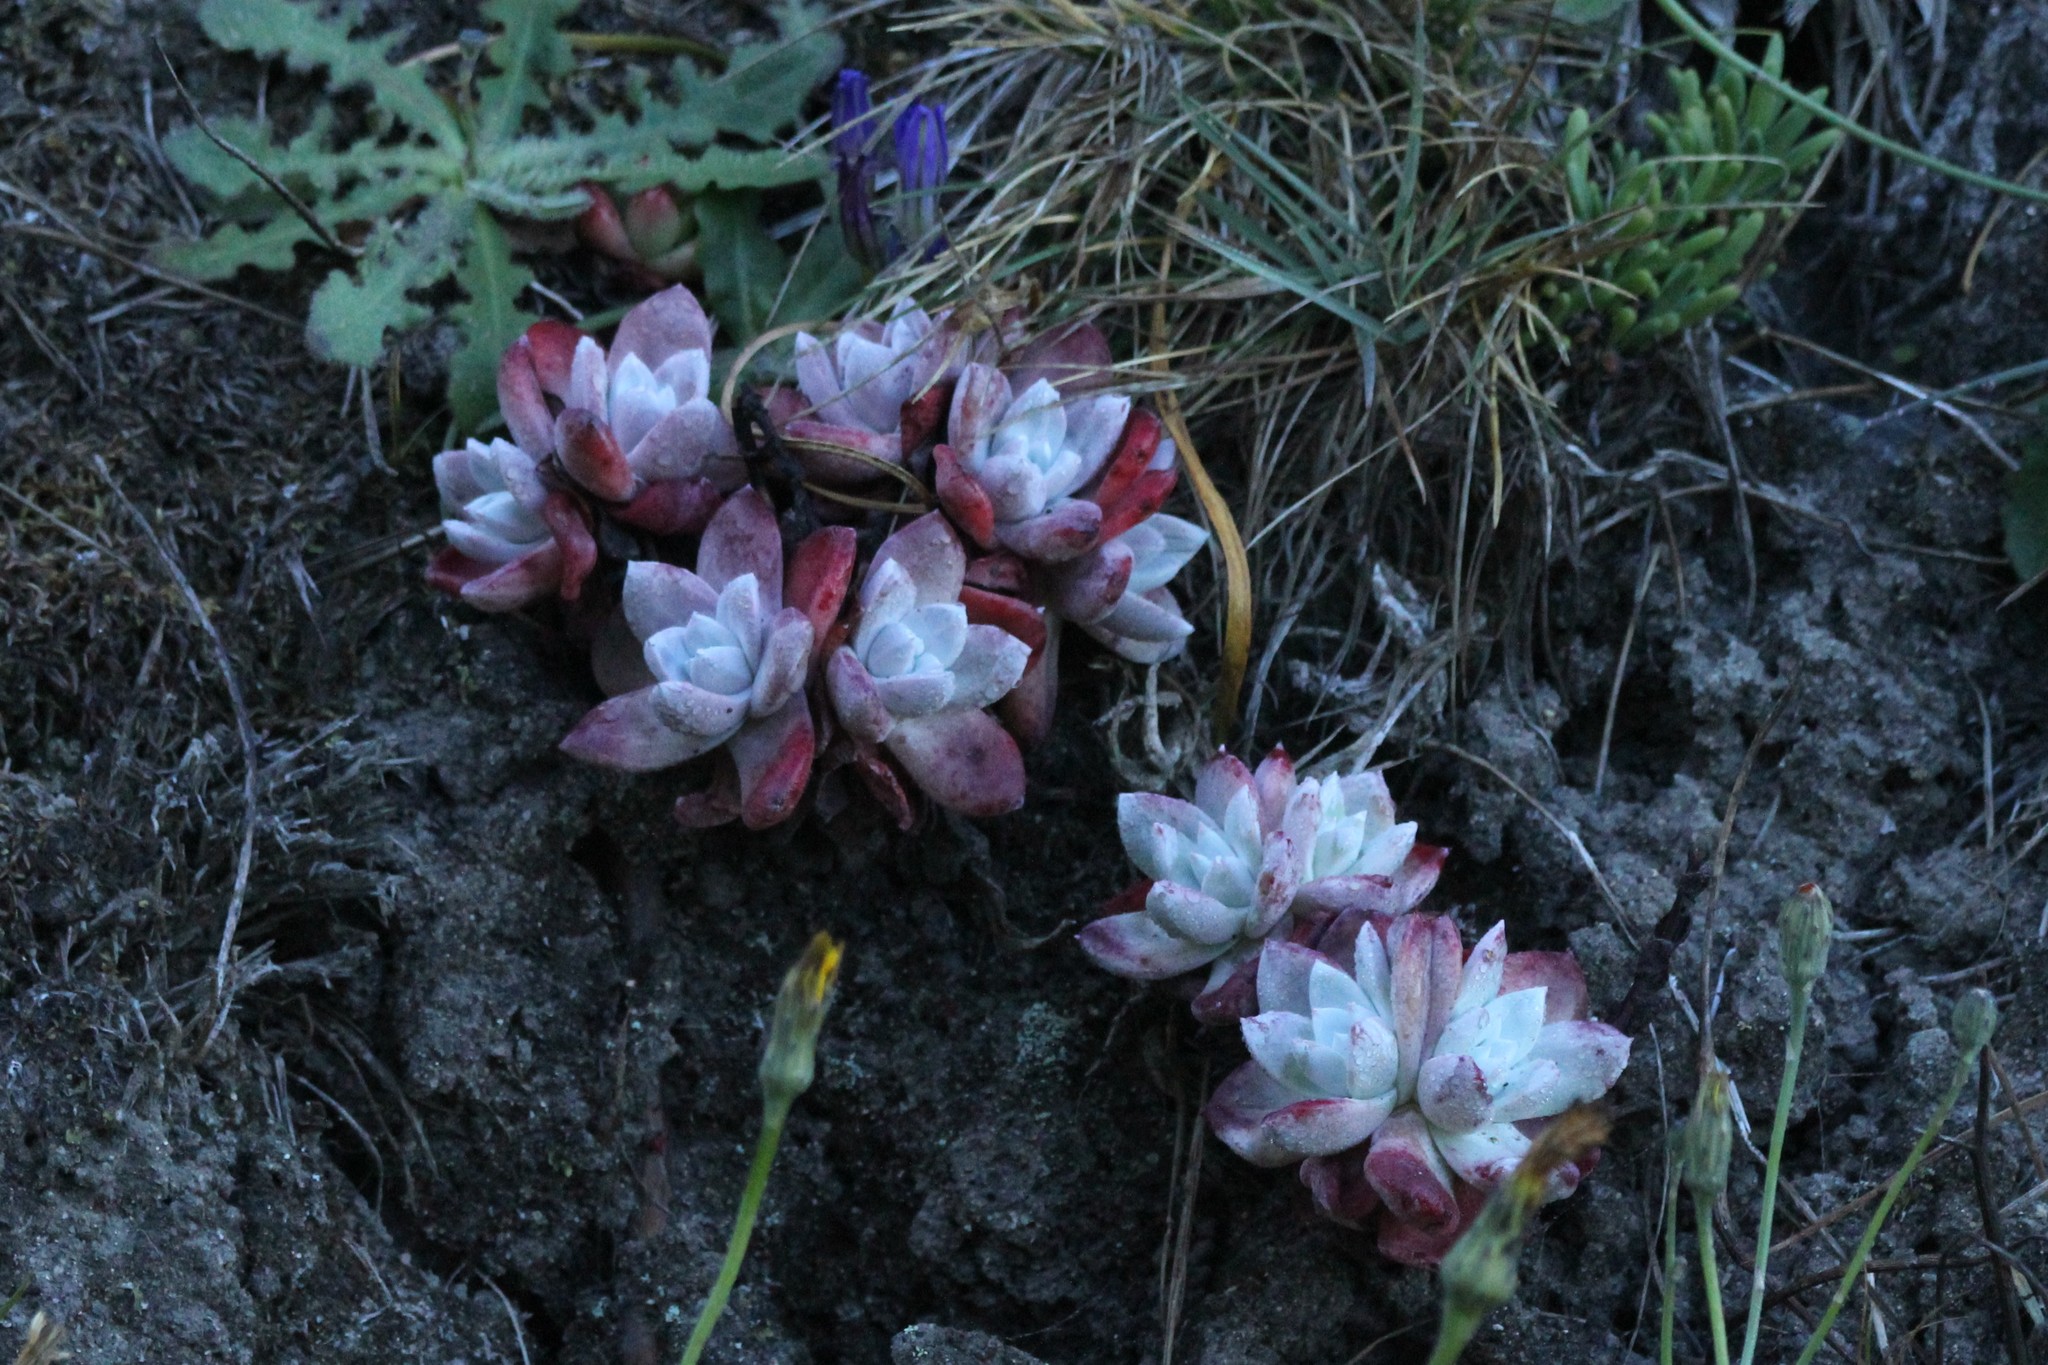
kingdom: Plantae
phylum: Tracheophyta
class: Magnoliopsida
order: Saxifragales
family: Crassulaceae
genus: Dudleya
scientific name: Dudleya farinosa
